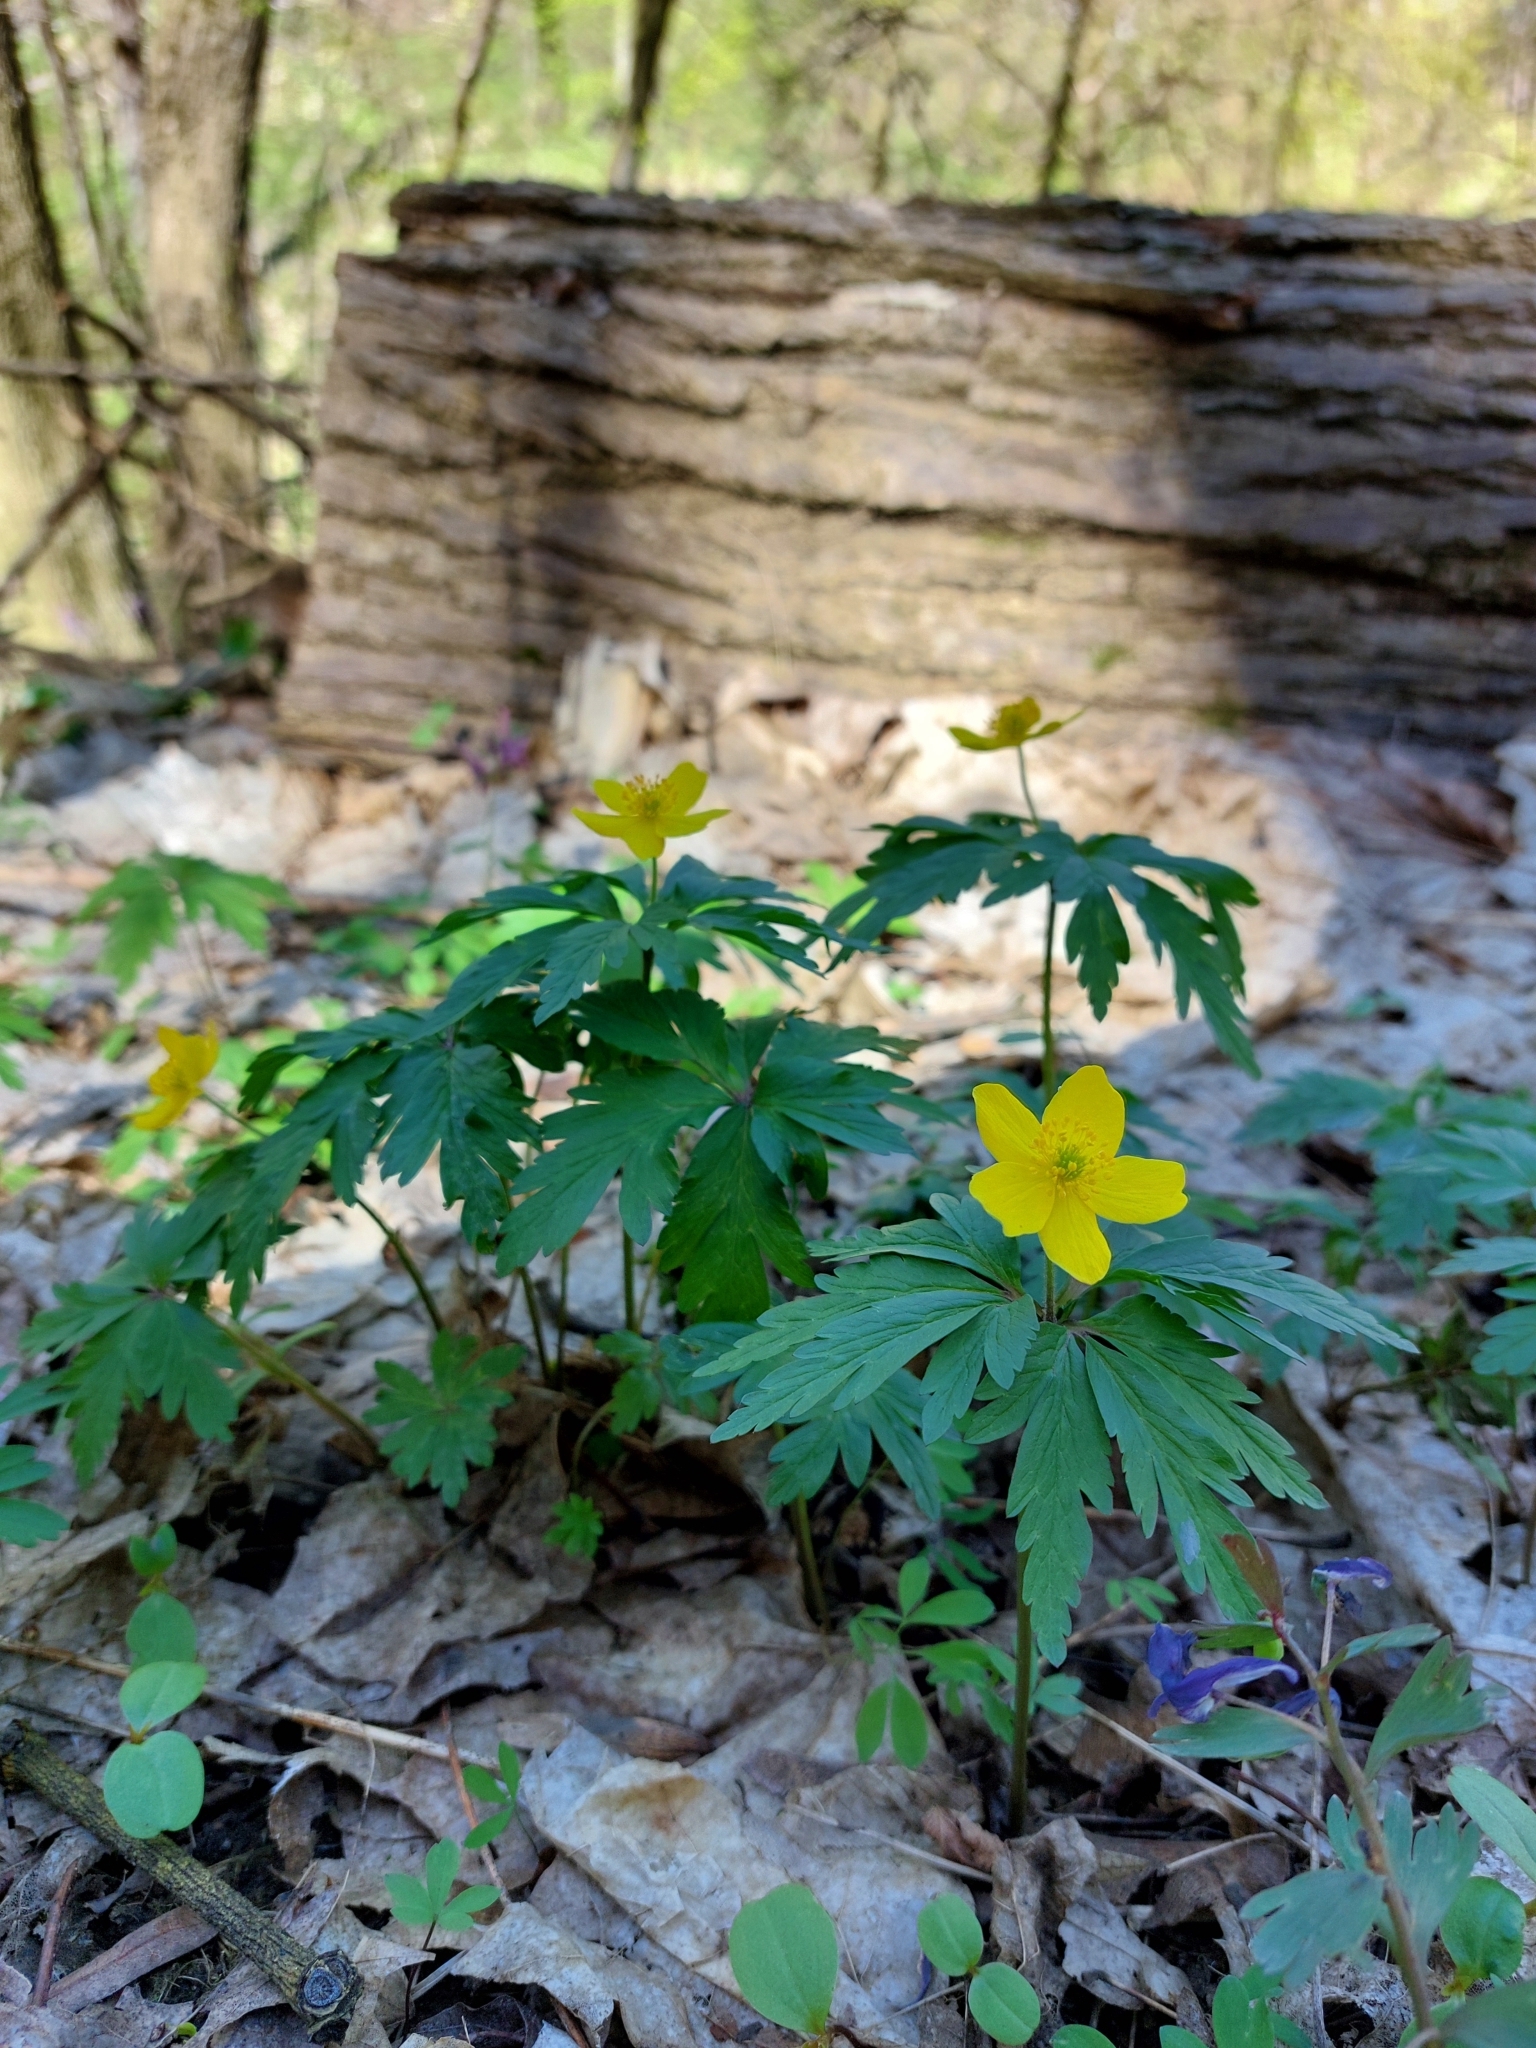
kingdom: Plantae
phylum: Tracheophyta
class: Magnoliopsida
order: Ranunculales
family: Ranunculaceae
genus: Anemone
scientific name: Anemone ranunculoides
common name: Yellow anemone
